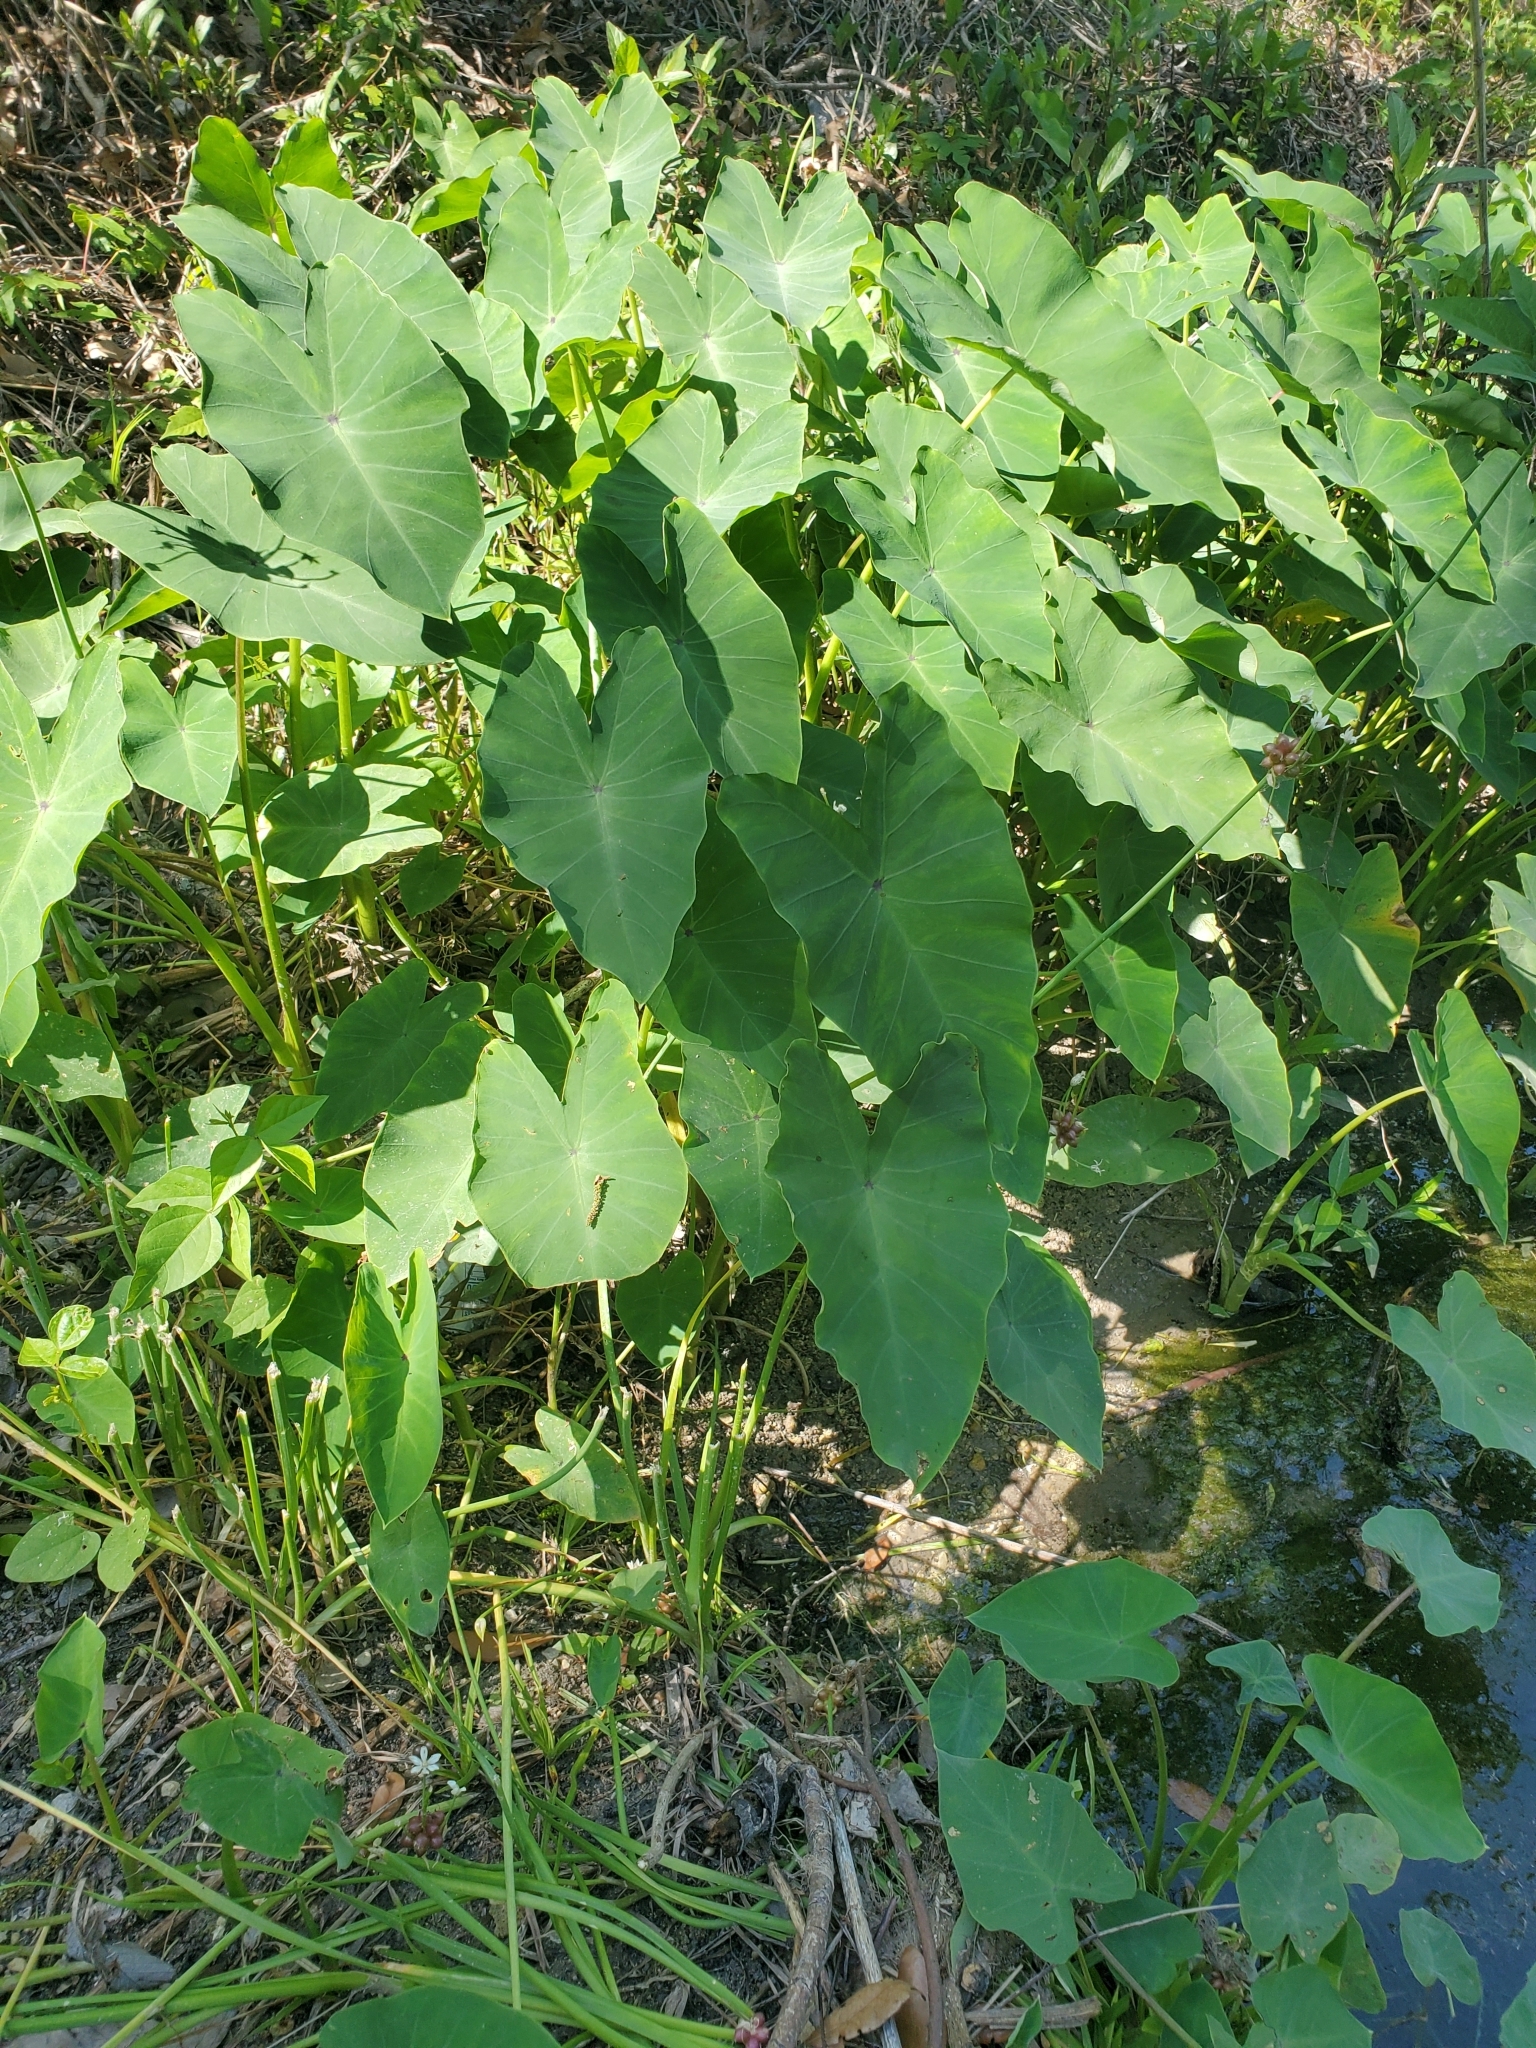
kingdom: Plantae
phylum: Tracheophyta
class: Liliopsida
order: Alismatales
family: Araceae
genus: Colocasia
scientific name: Colocasia esculenta
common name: Taro
